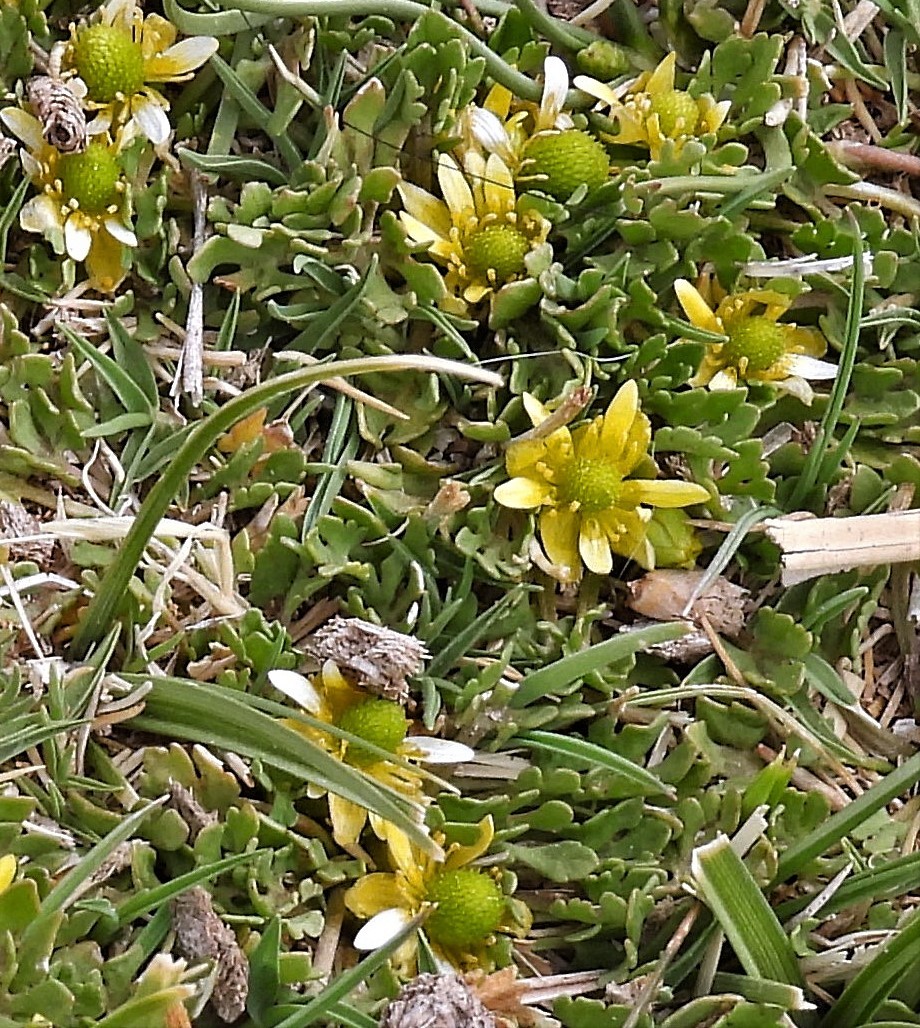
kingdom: Plantae
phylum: Tracheophyta
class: Magnoliopsida
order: Ranunculales
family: Ranunculaceae
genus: Halerpestes
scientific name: Halerpestes exilis
